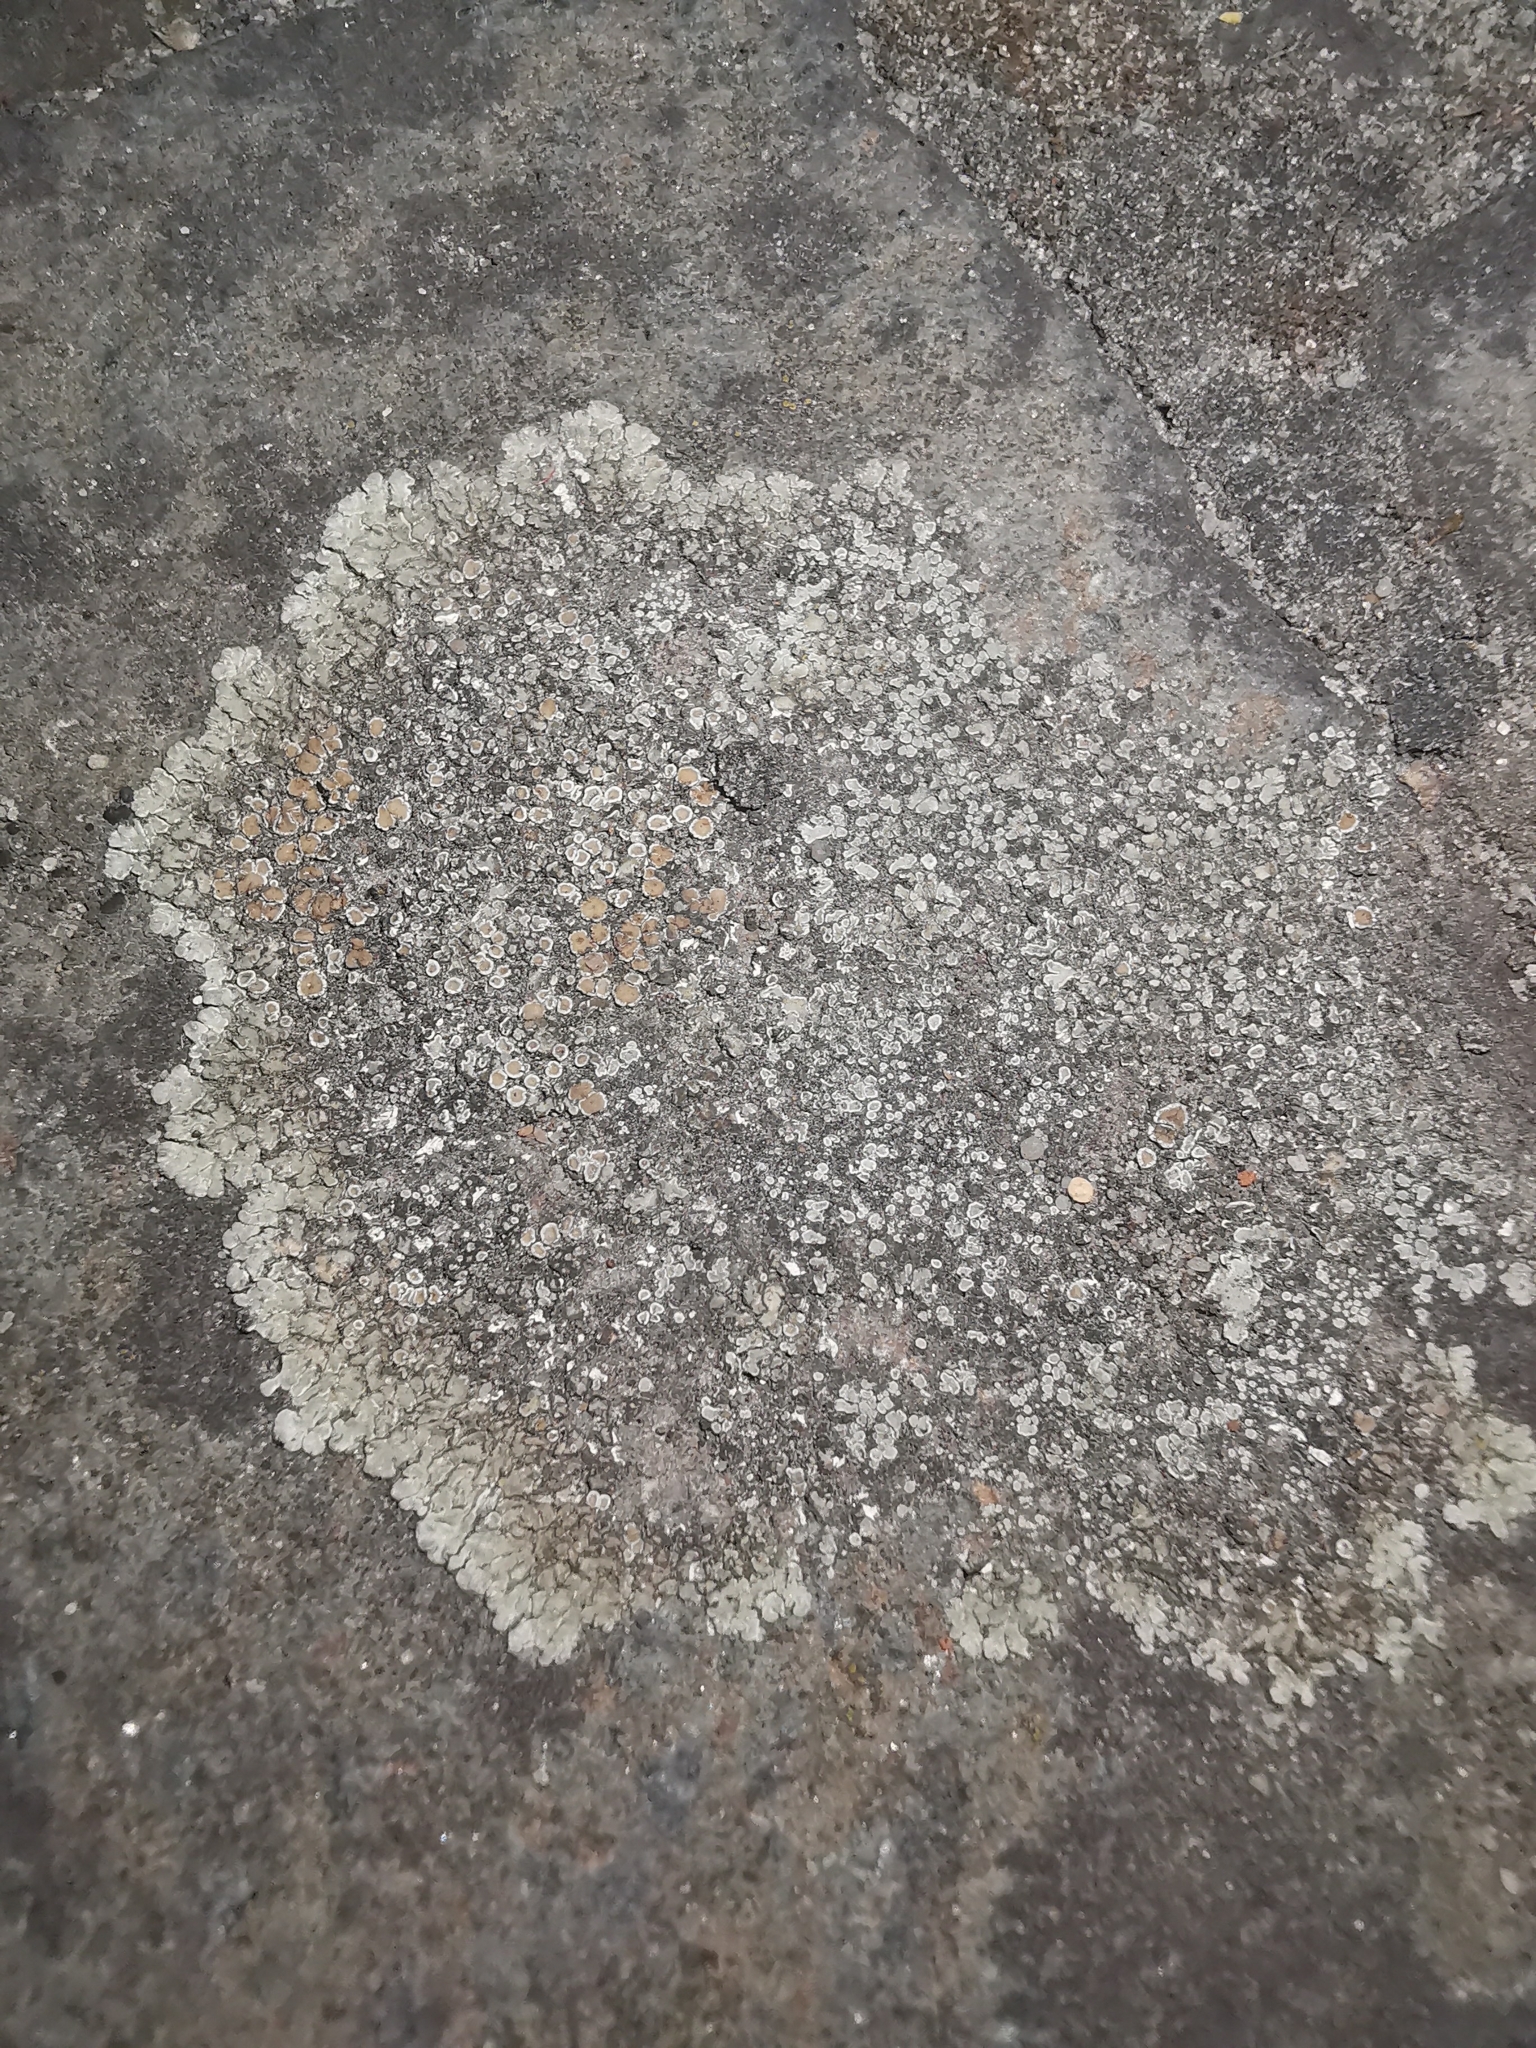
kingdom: Fungi
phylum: Ascomycota
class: Lecanoromycetes
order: Lecanorales
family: Lecanoraceae
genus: Protoparmeliopsis
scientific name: Protoparmeliopsis muralis
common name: Stonewall rim lichen
